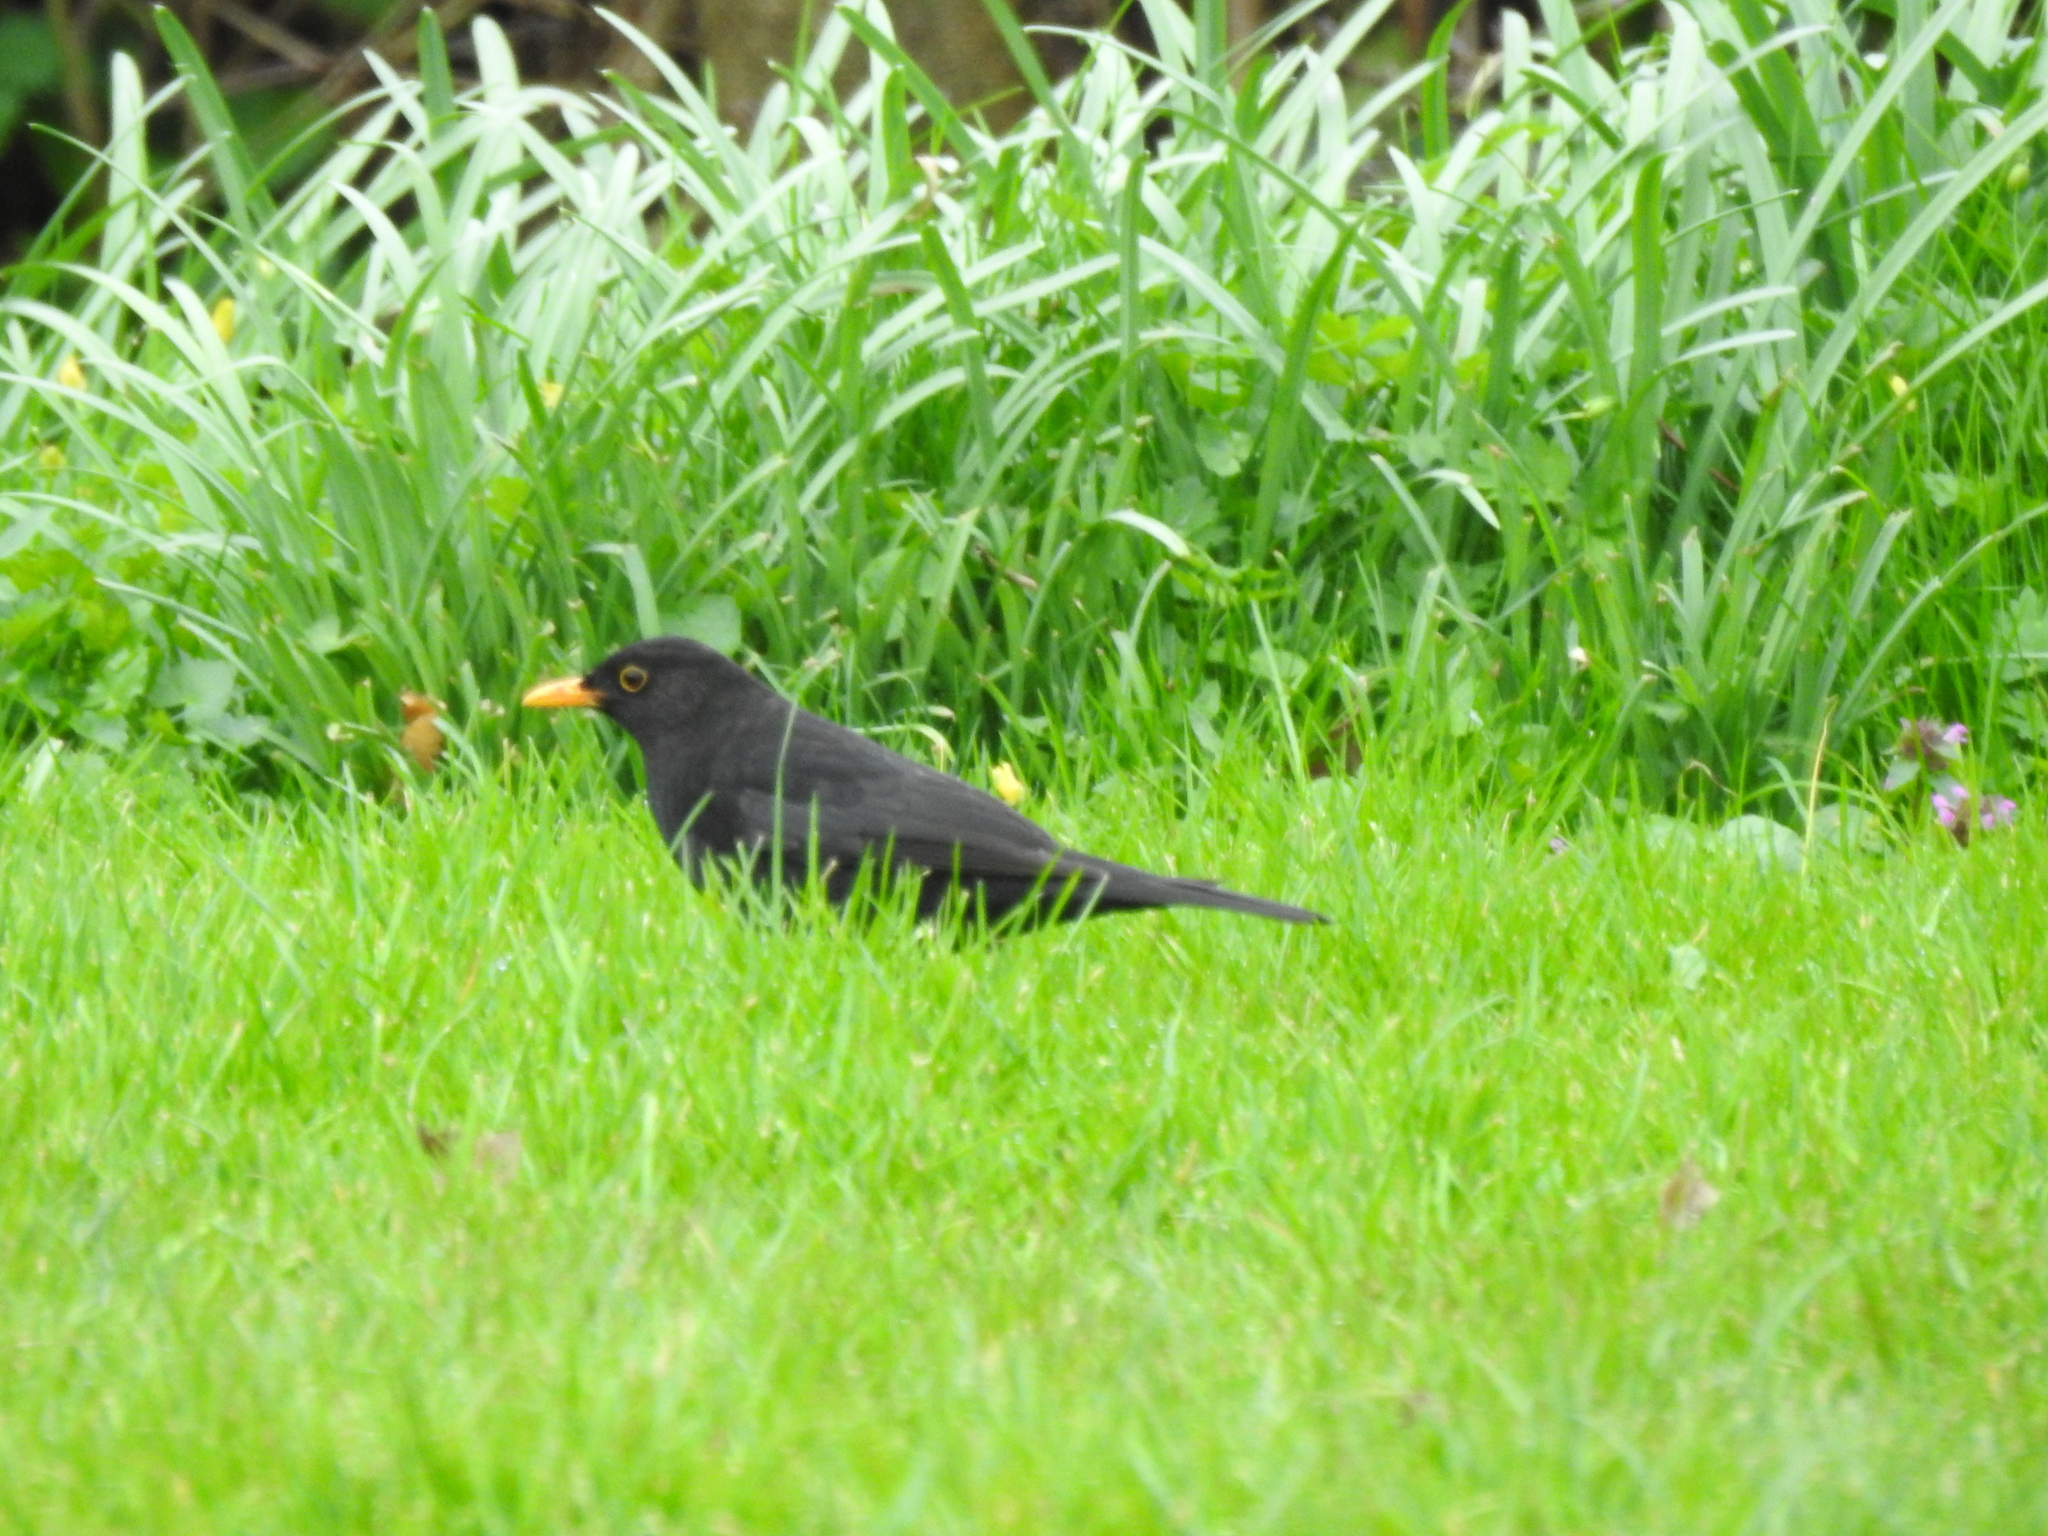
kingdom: Animalia
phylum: Chordata
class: Aves
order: Passeriformes
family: Turdidae
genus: Turdus
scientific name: Turdus merula
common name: Common blackbird
